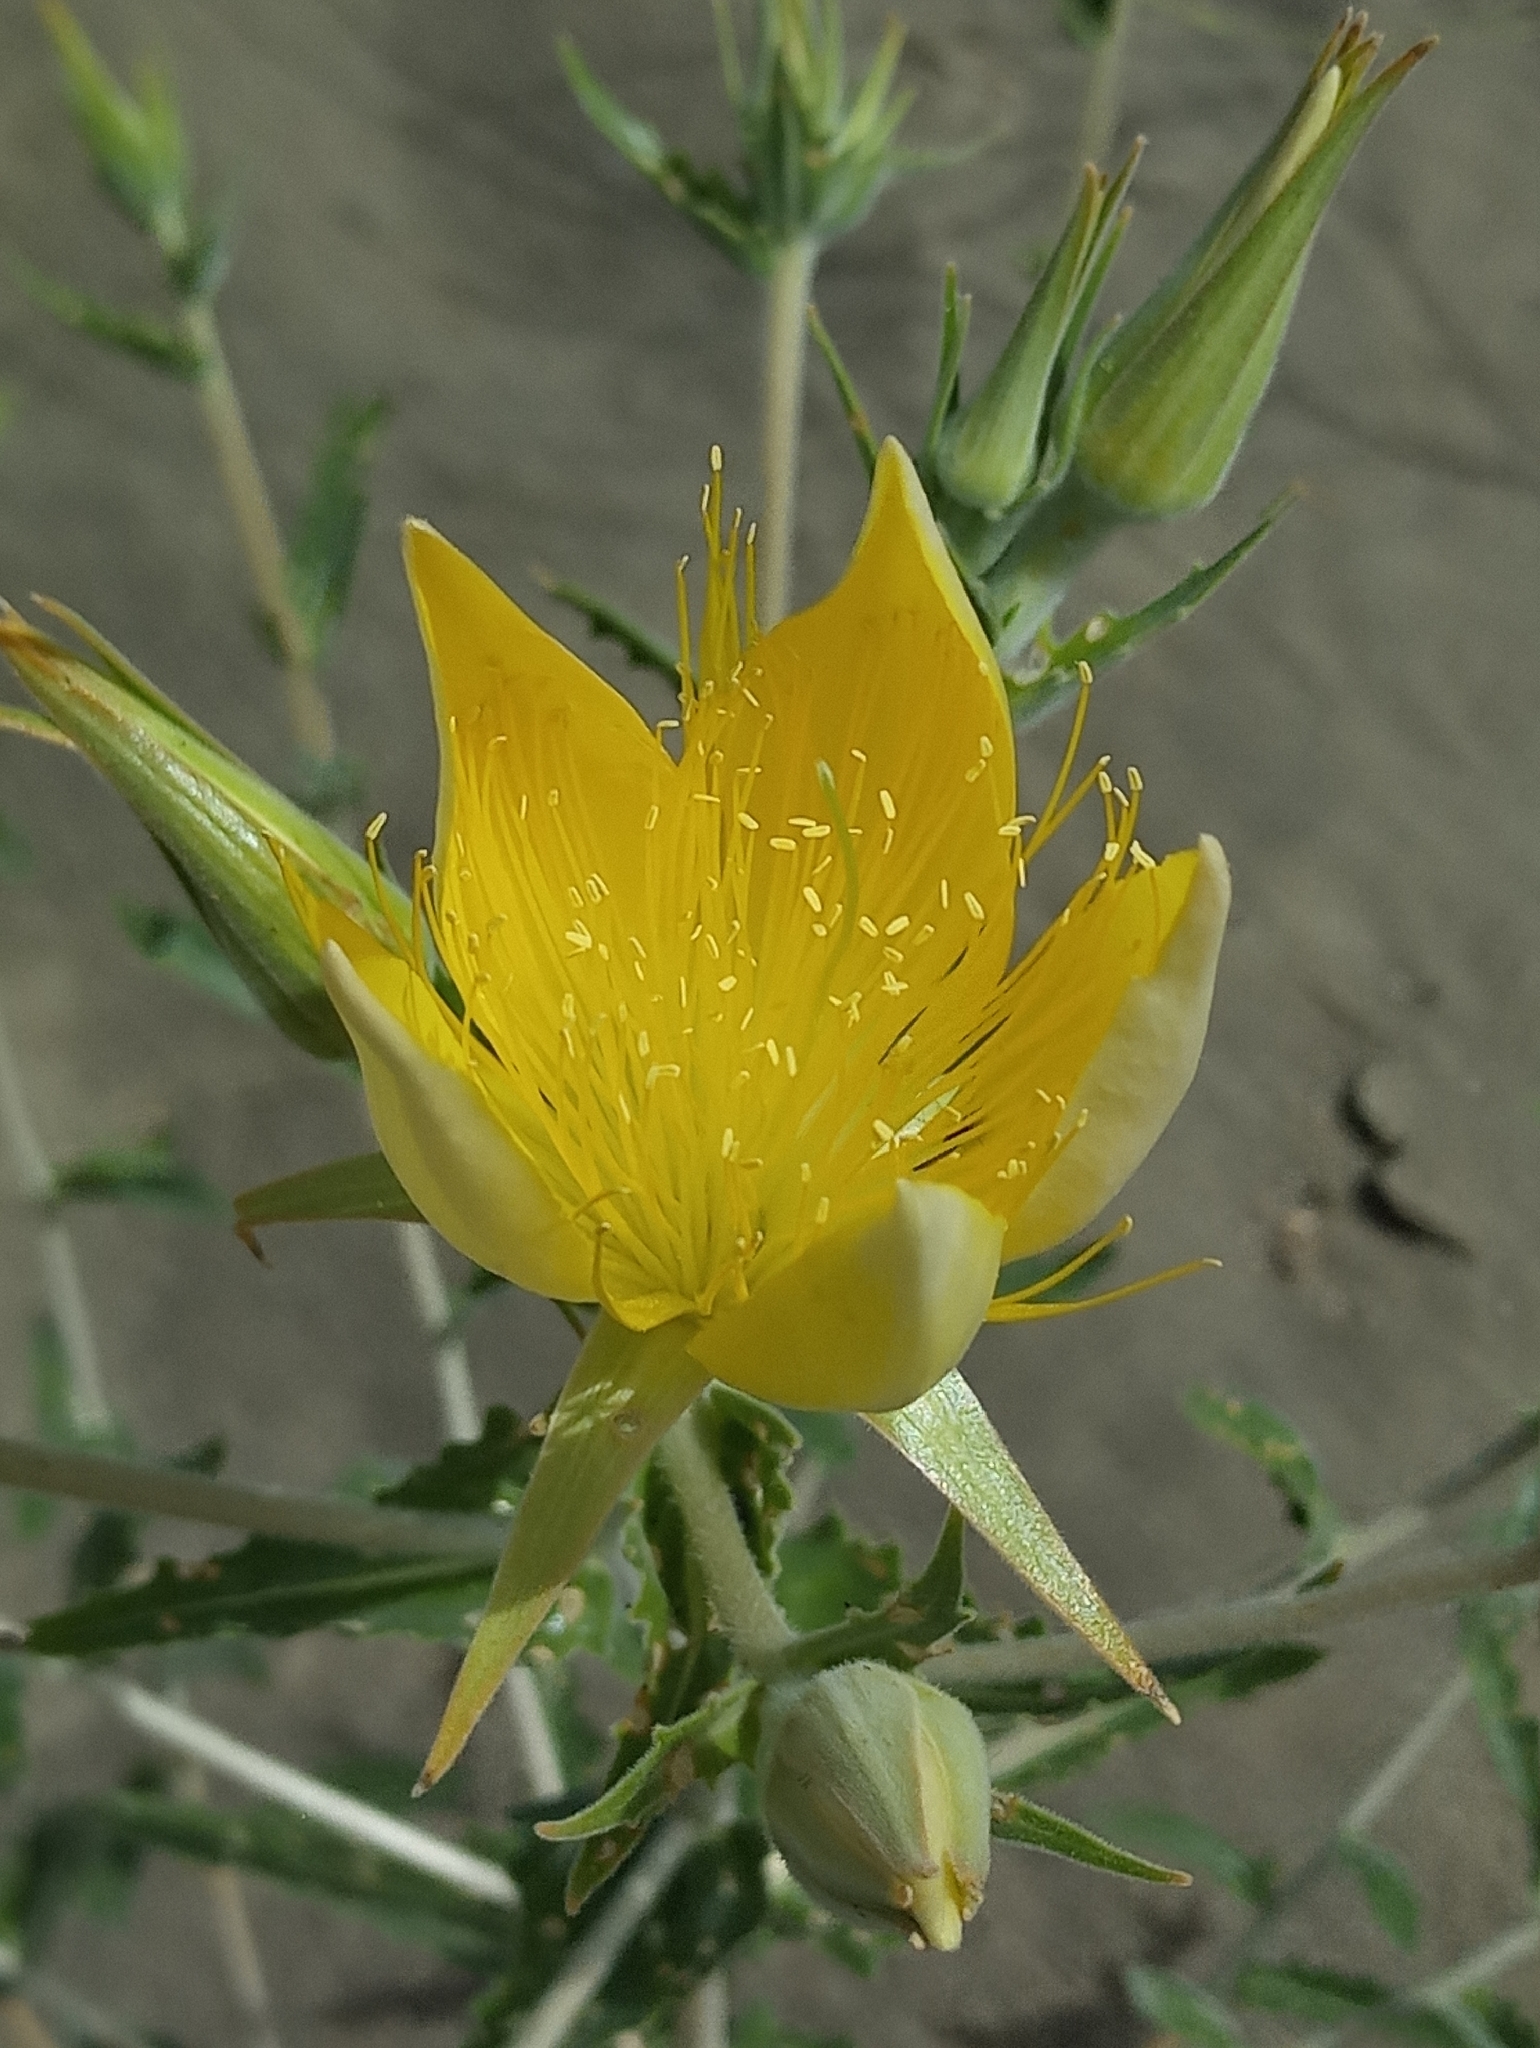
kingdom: Plantae
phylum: Tracheophyta
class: Magnoliopsida
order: Cornales
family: Loasaceae
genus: Mentzelia
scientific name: Mentzelia laevicaulis
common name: Smooth-stem blazingstar
